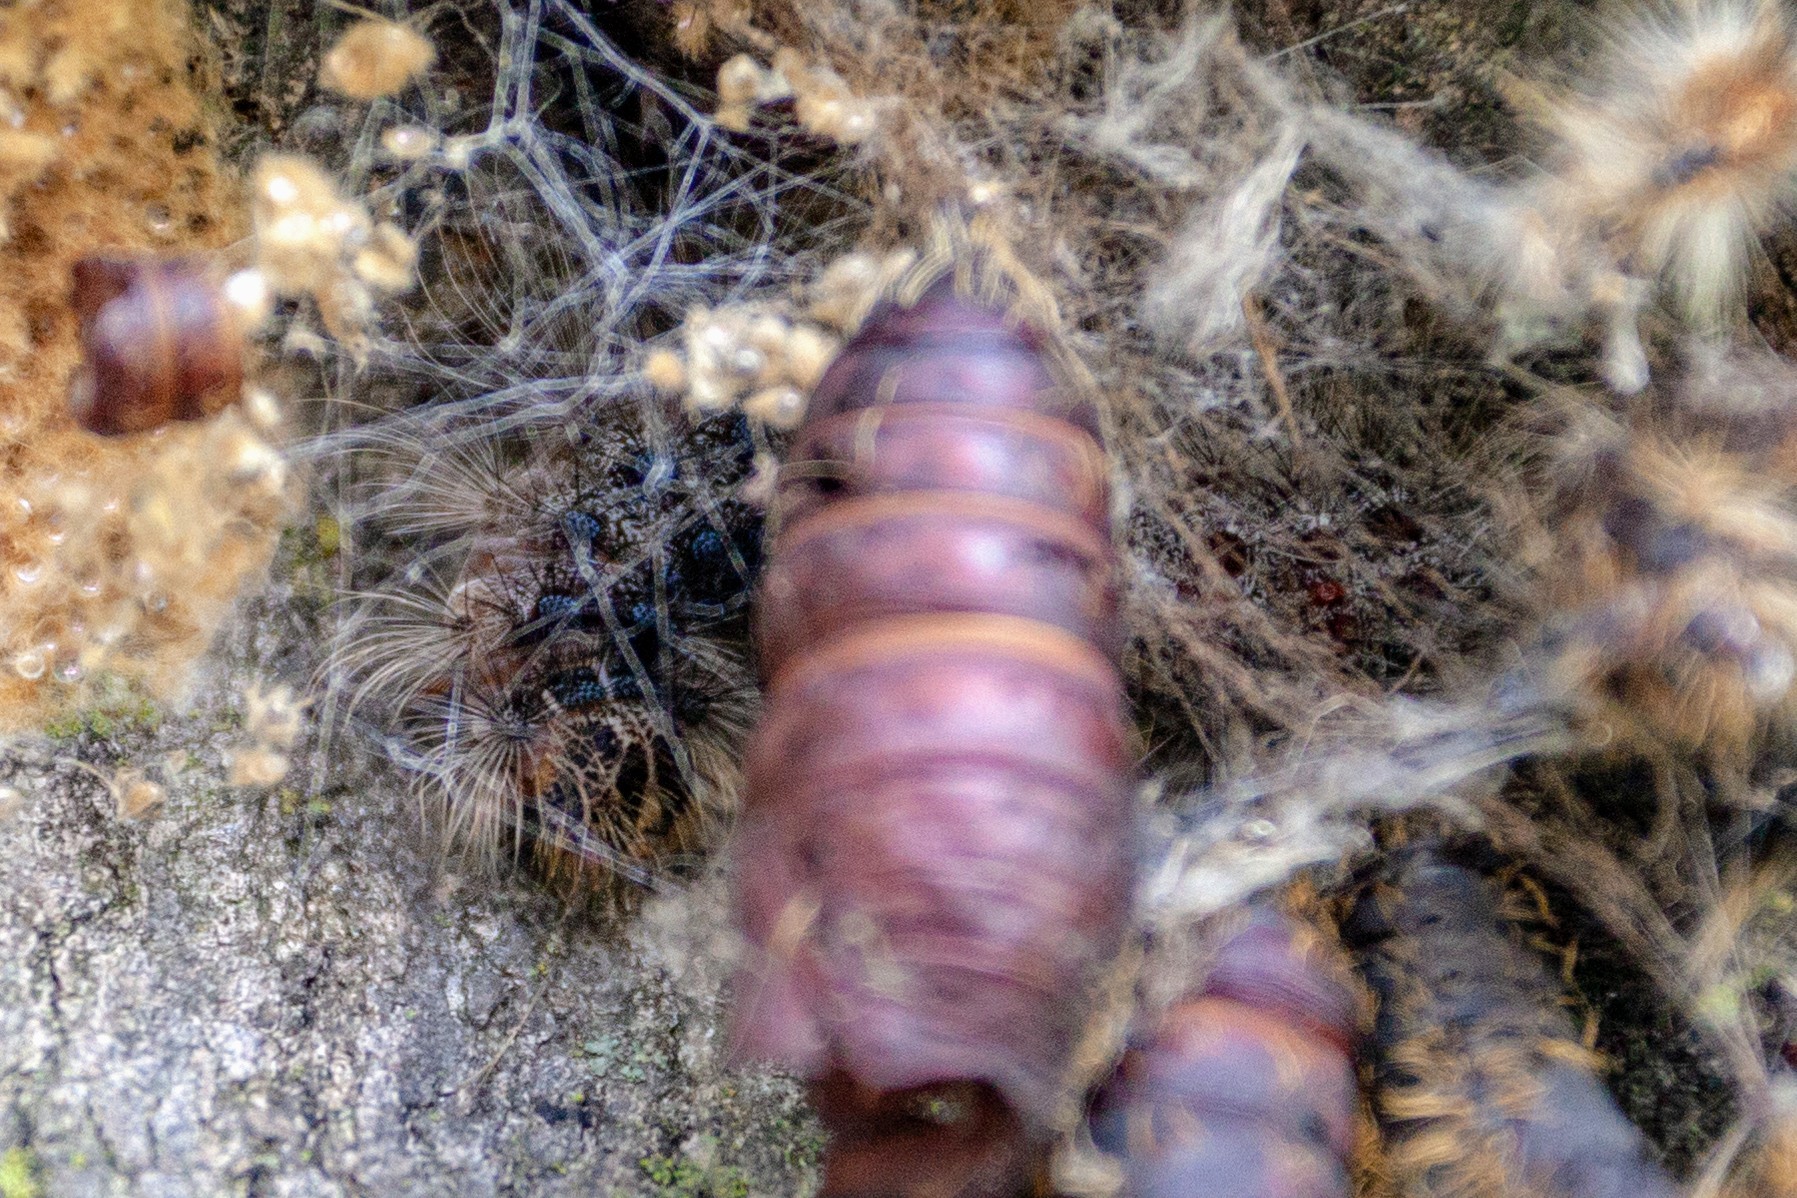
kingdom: Animalia
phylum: Arthropoda
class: Insecta
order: Lepidoptera
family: Erebidae
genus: Lymantria
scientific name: Lymantria dispar
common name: Gypsy moth
